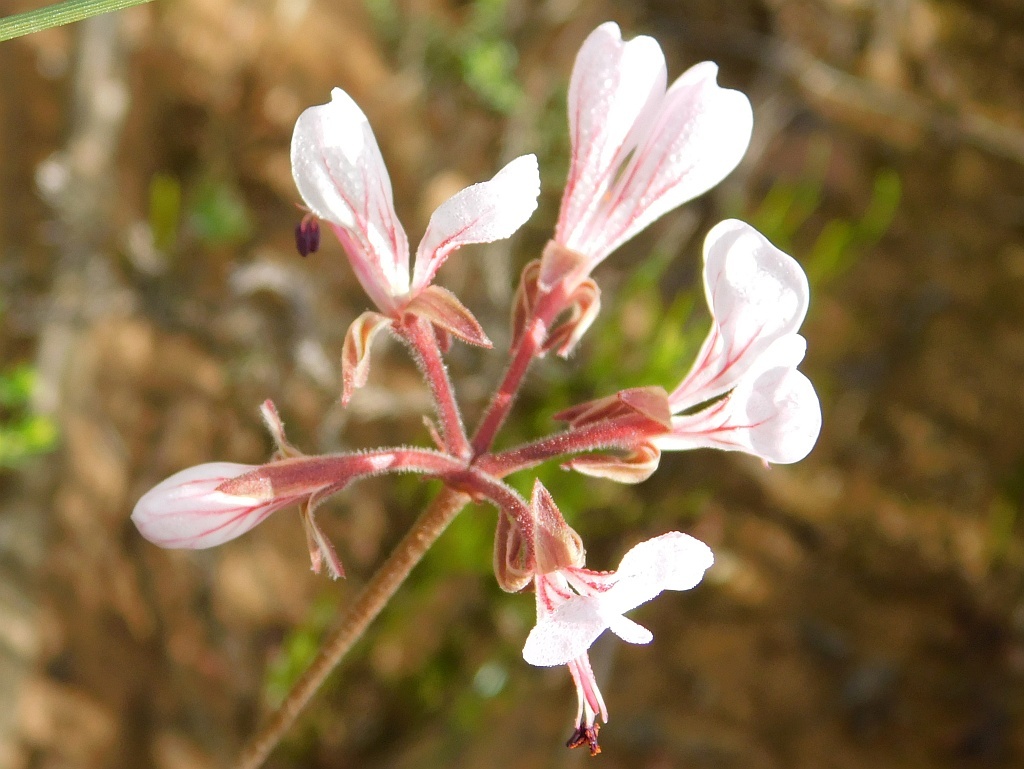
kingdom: Plantae
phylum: Tracheophyta
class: Magnoliopsida
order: Geraniales
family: Geraniaceae
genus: Pelargonium
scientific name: Pelargonium dipetalum
